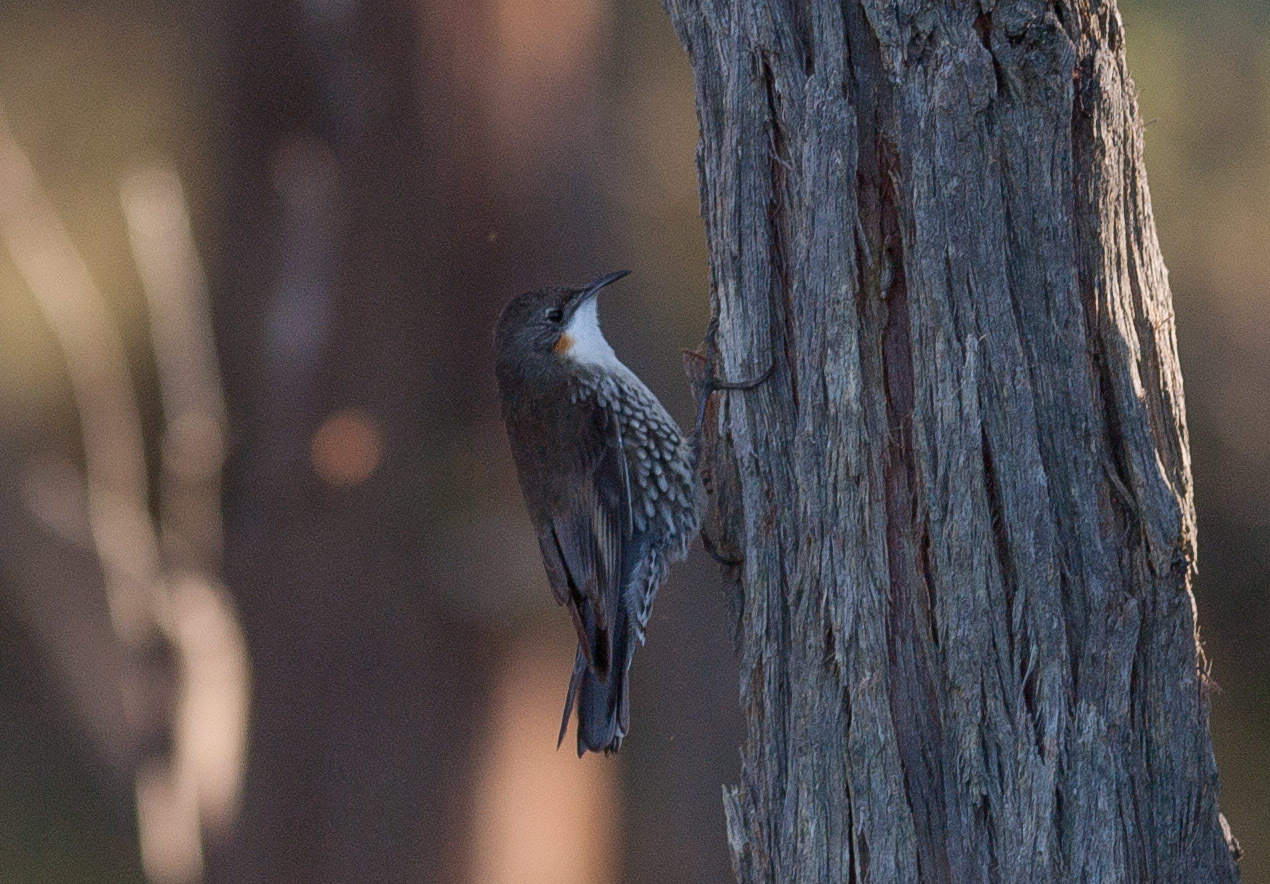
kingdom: Animalia
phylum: Chordata
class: Aves
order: Passeriformes
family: Climacteridae
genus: Cormobates
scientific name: Cormobates leucophaea
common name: White-throated treecreeper
